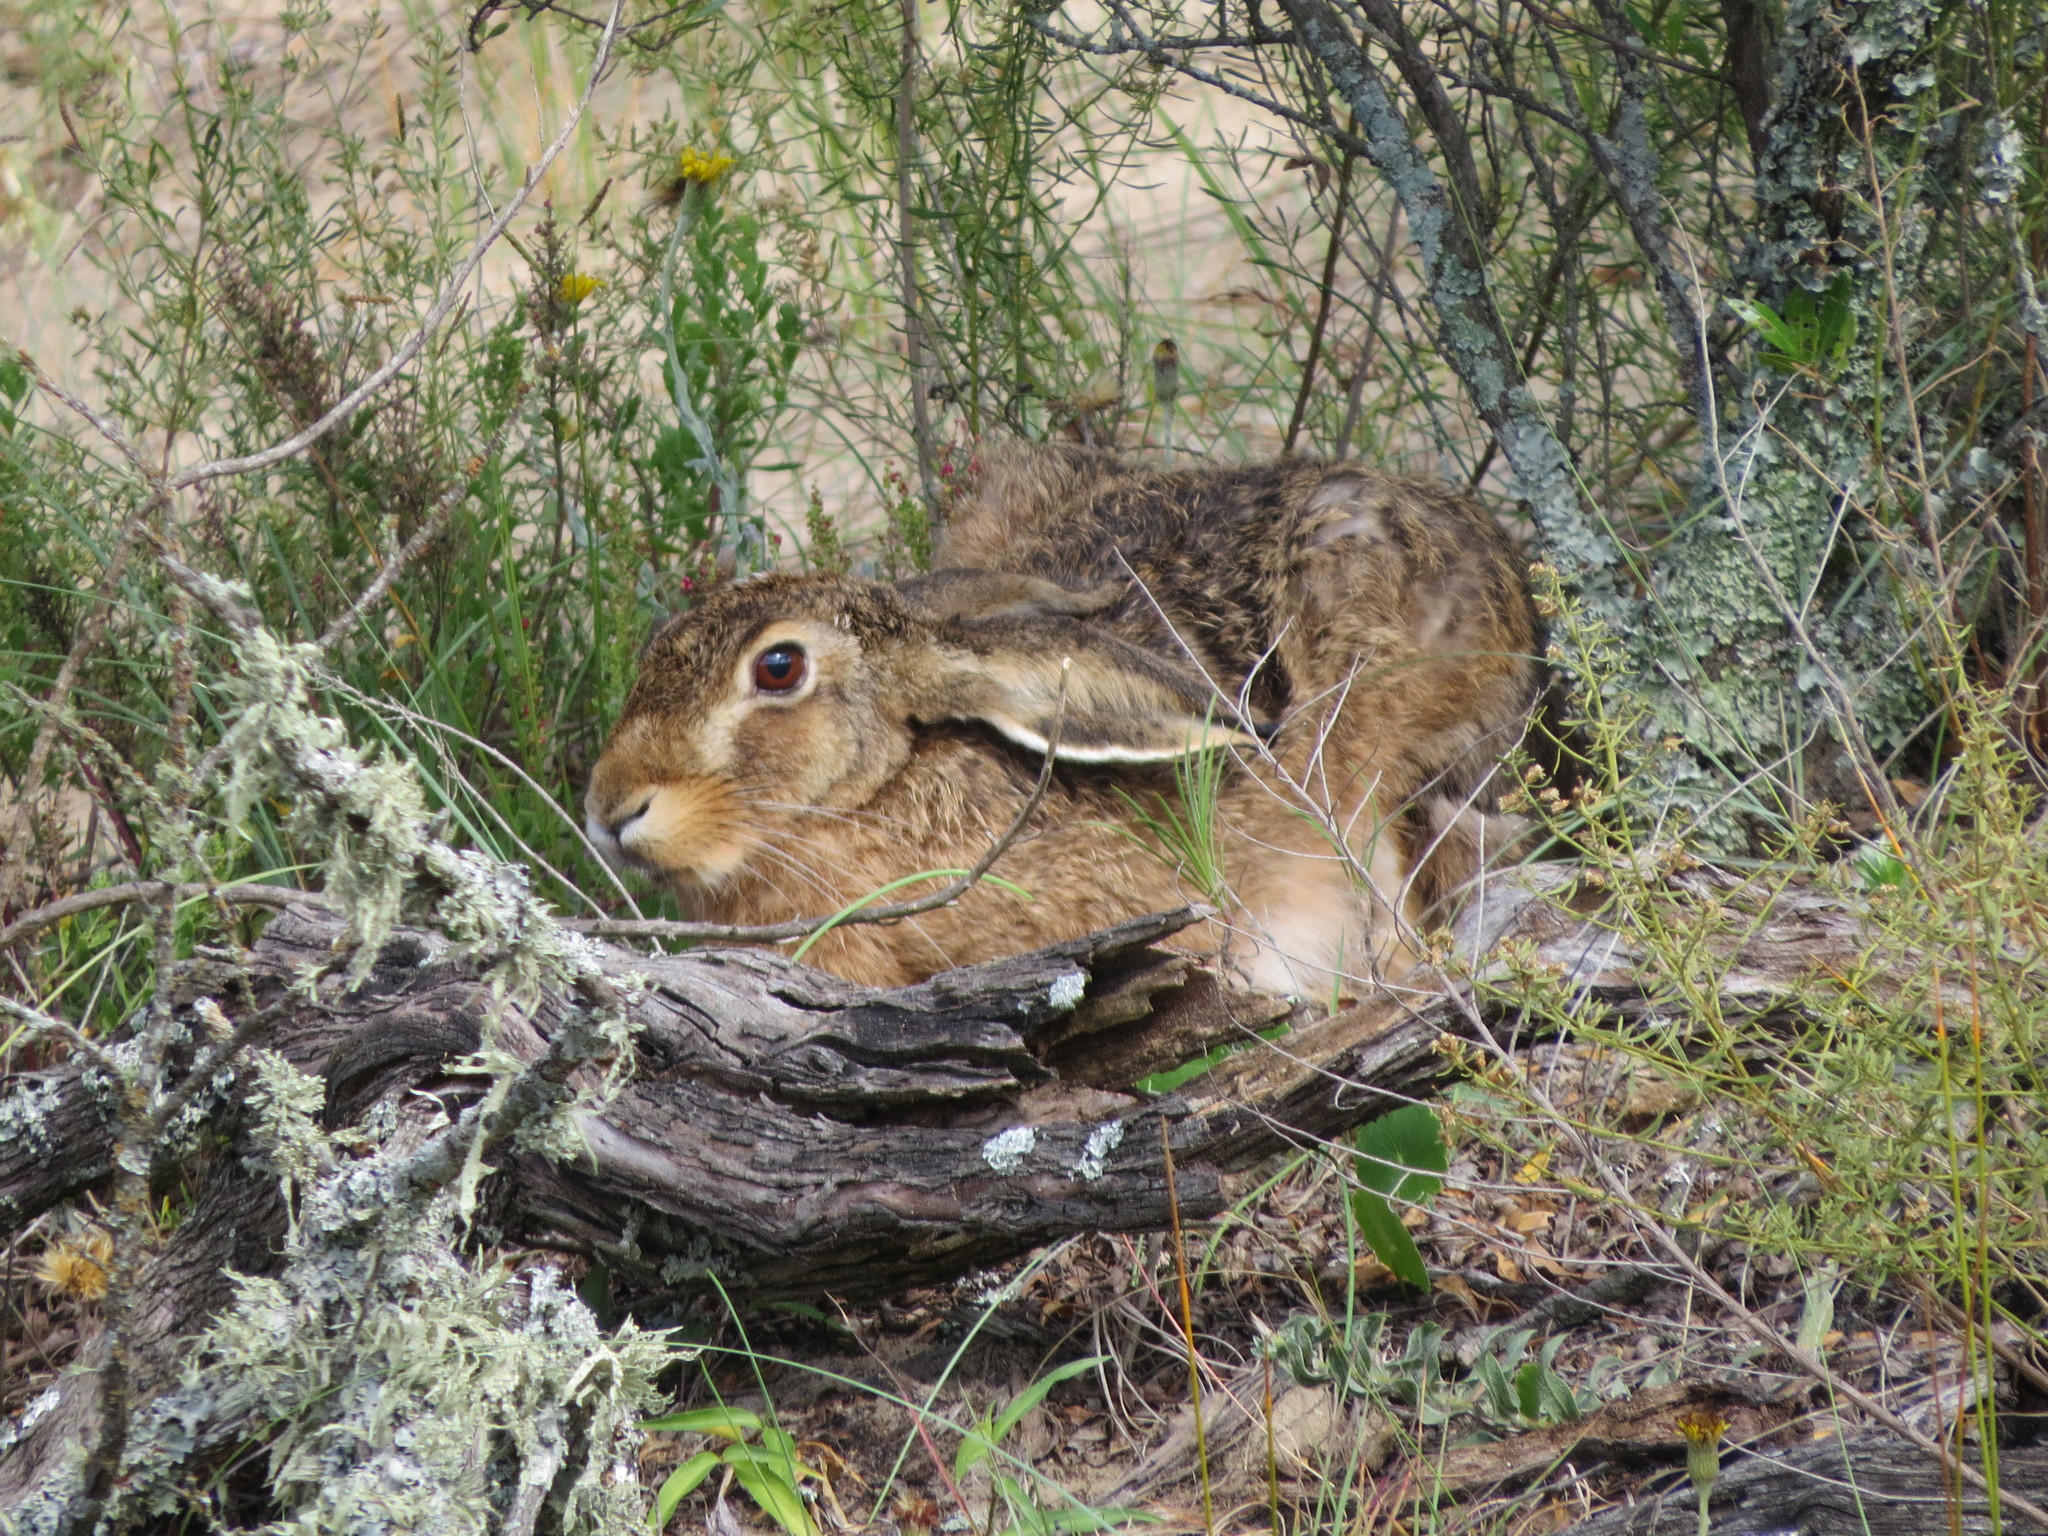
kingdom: Animalia
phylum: Chordata
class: Mammalia
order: Lagomorpha
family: Leporidae
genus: Lepus
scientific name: Lepus europaeus
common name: European hare
